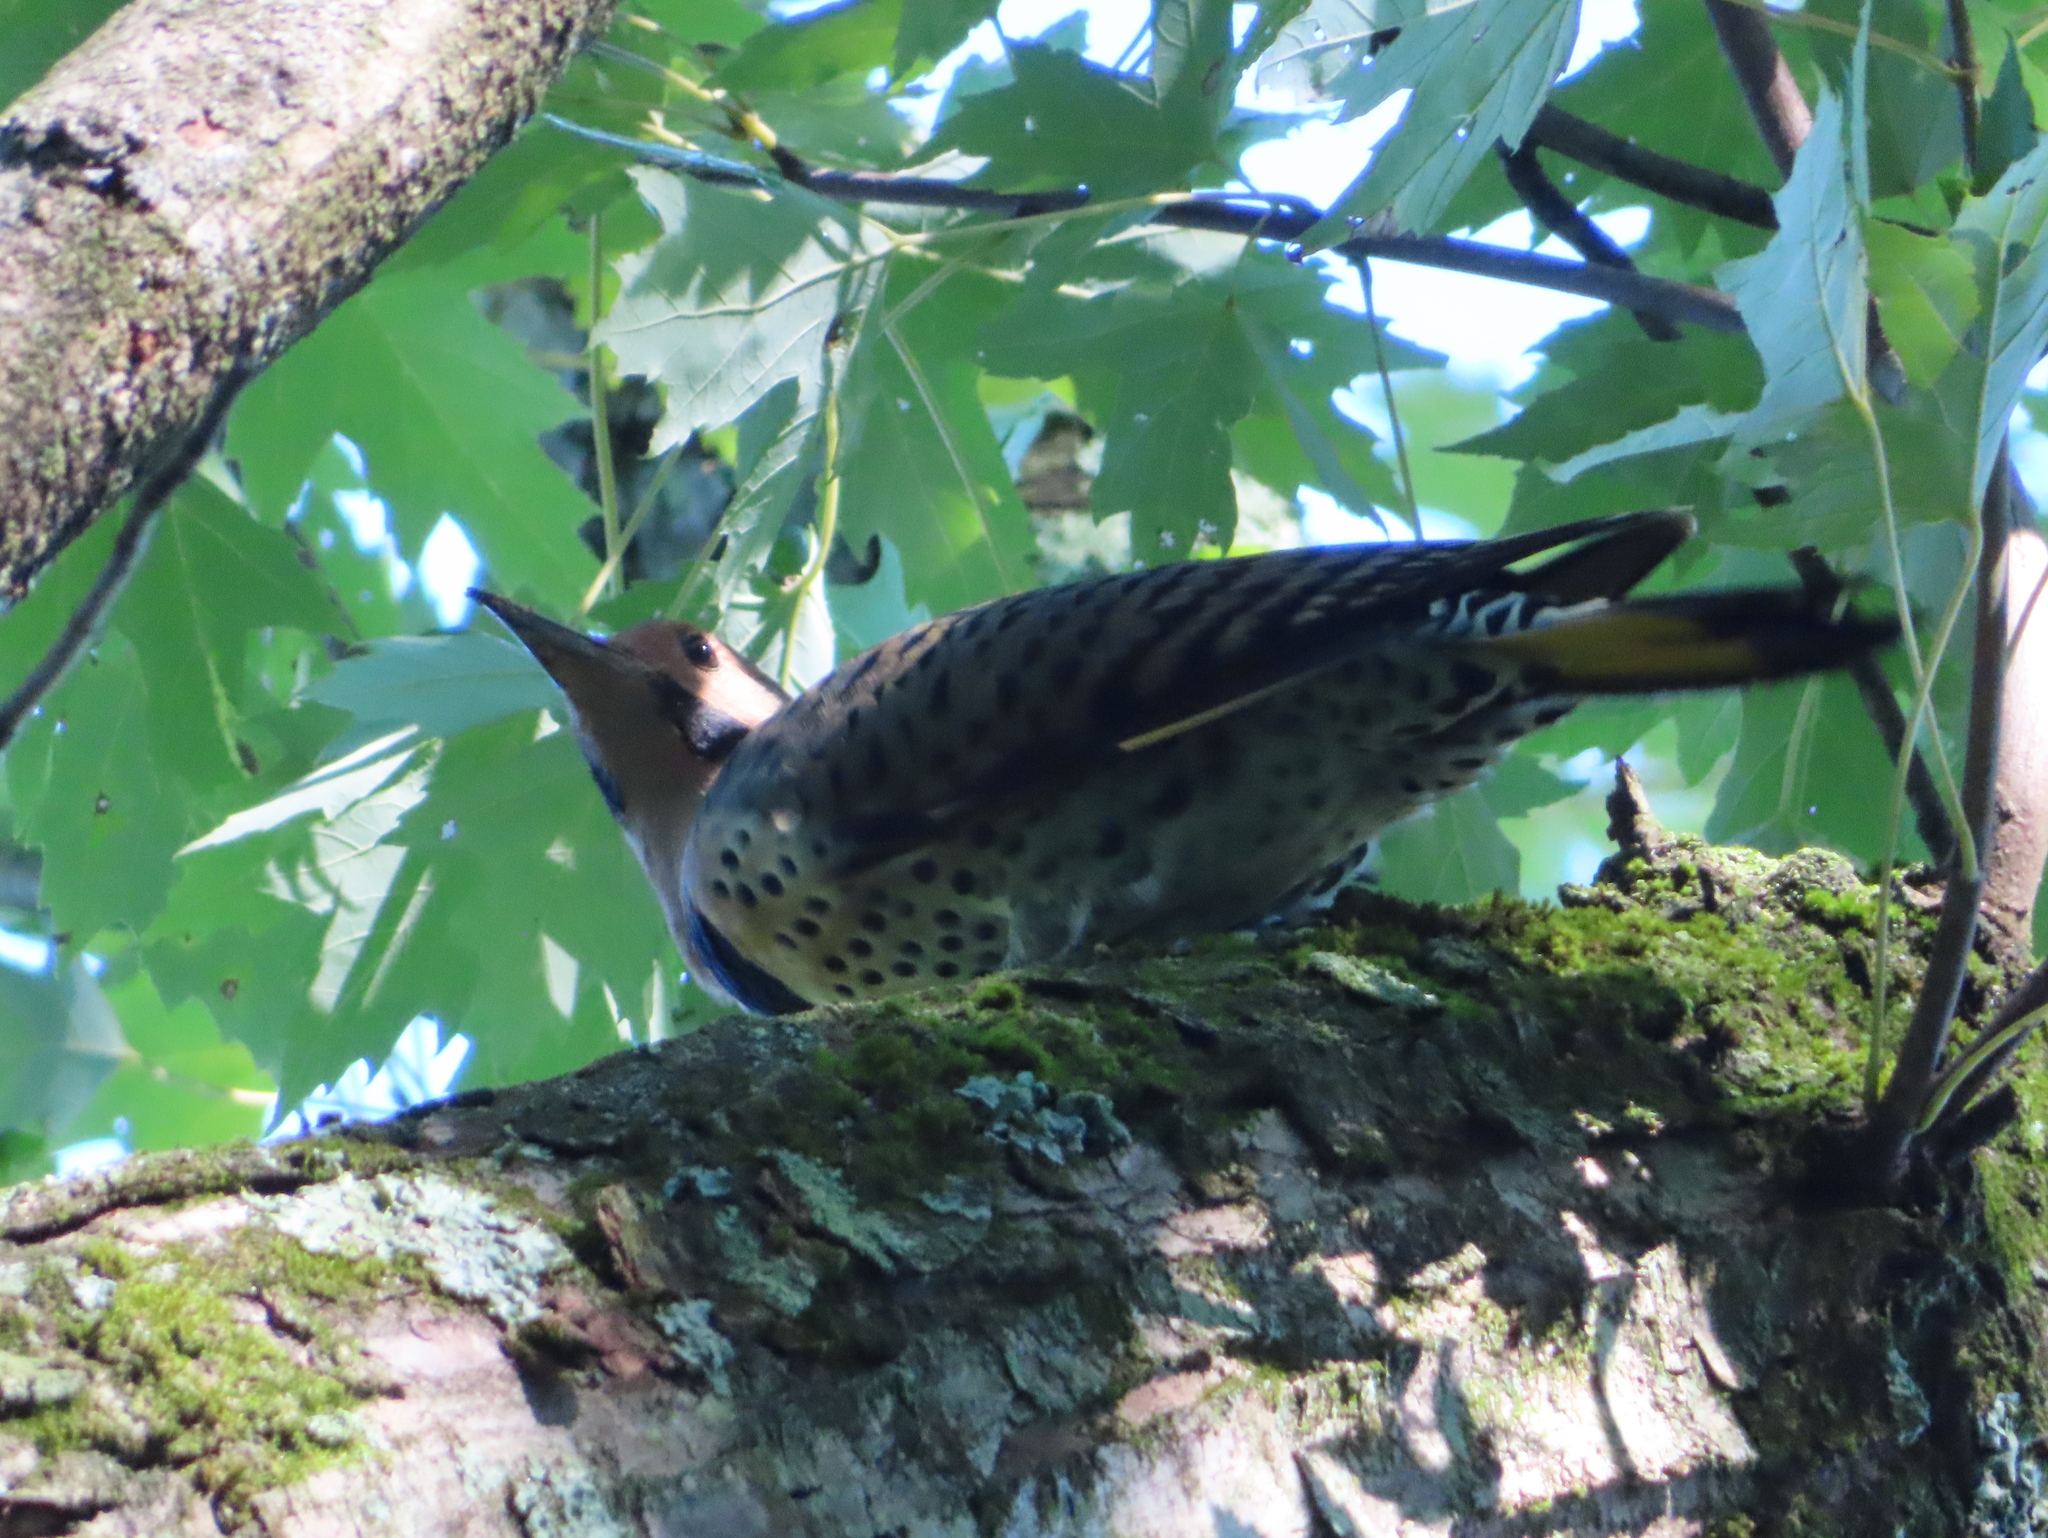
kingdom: Animalia
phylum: Chordata
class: Aves
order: Piciformes
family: Picidae
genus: Colaptes
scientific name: Colaptes auratus
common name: Northern flicker
